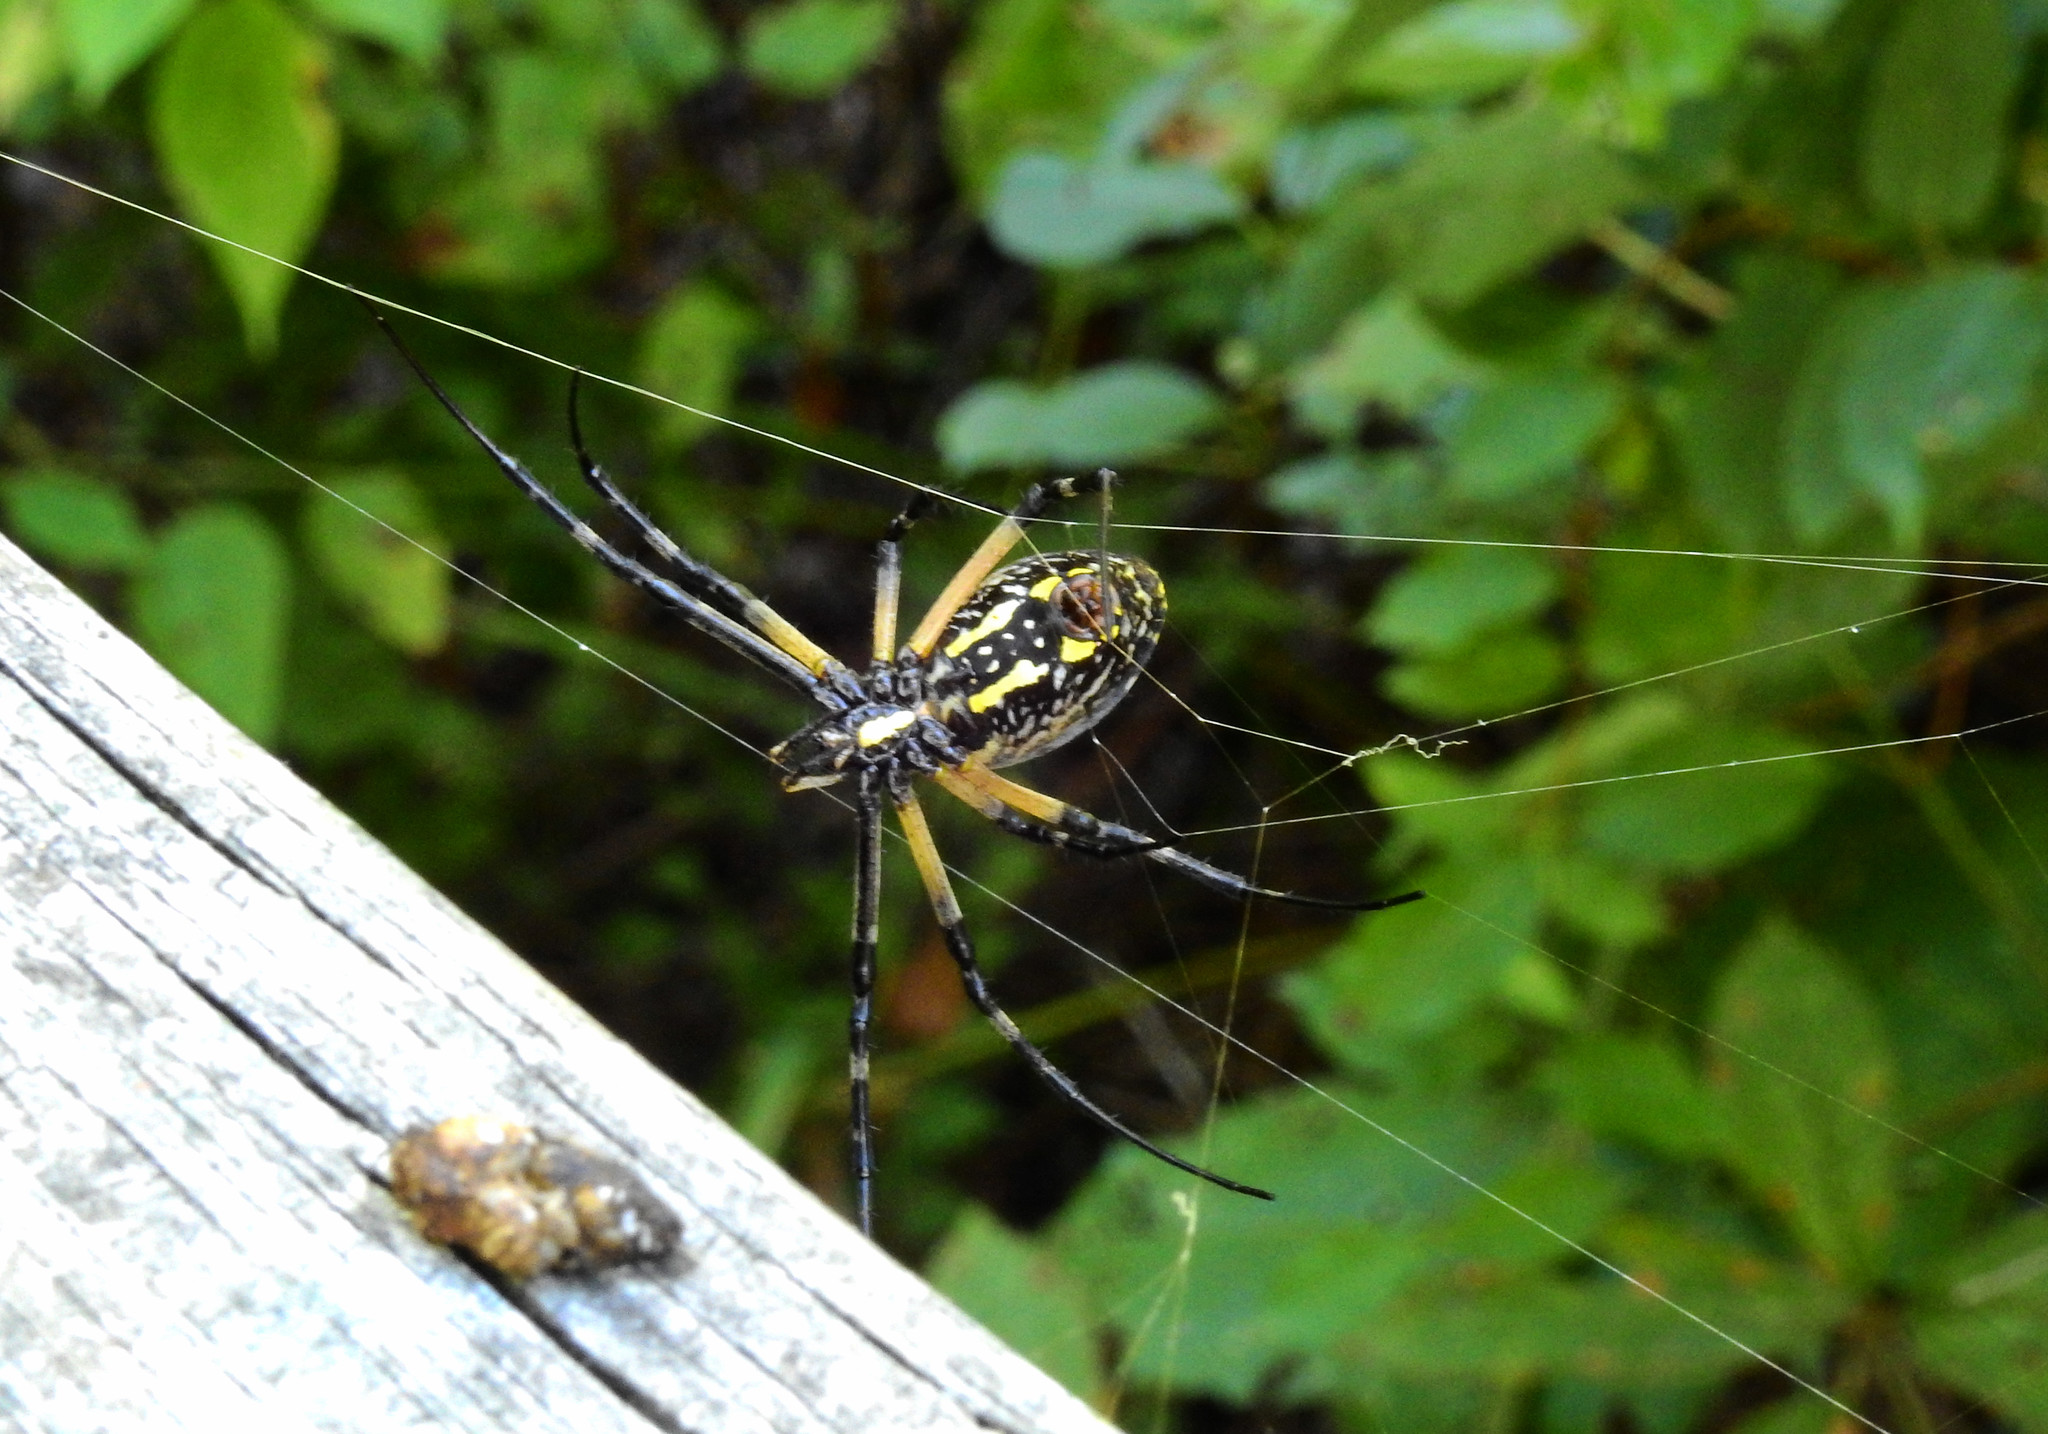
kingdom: Animalia
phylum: Arthropoda
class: Arachnida
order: Araneae
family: Araneidae
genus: Argiope
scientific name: Argiope aurantia
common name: Orb weavers
